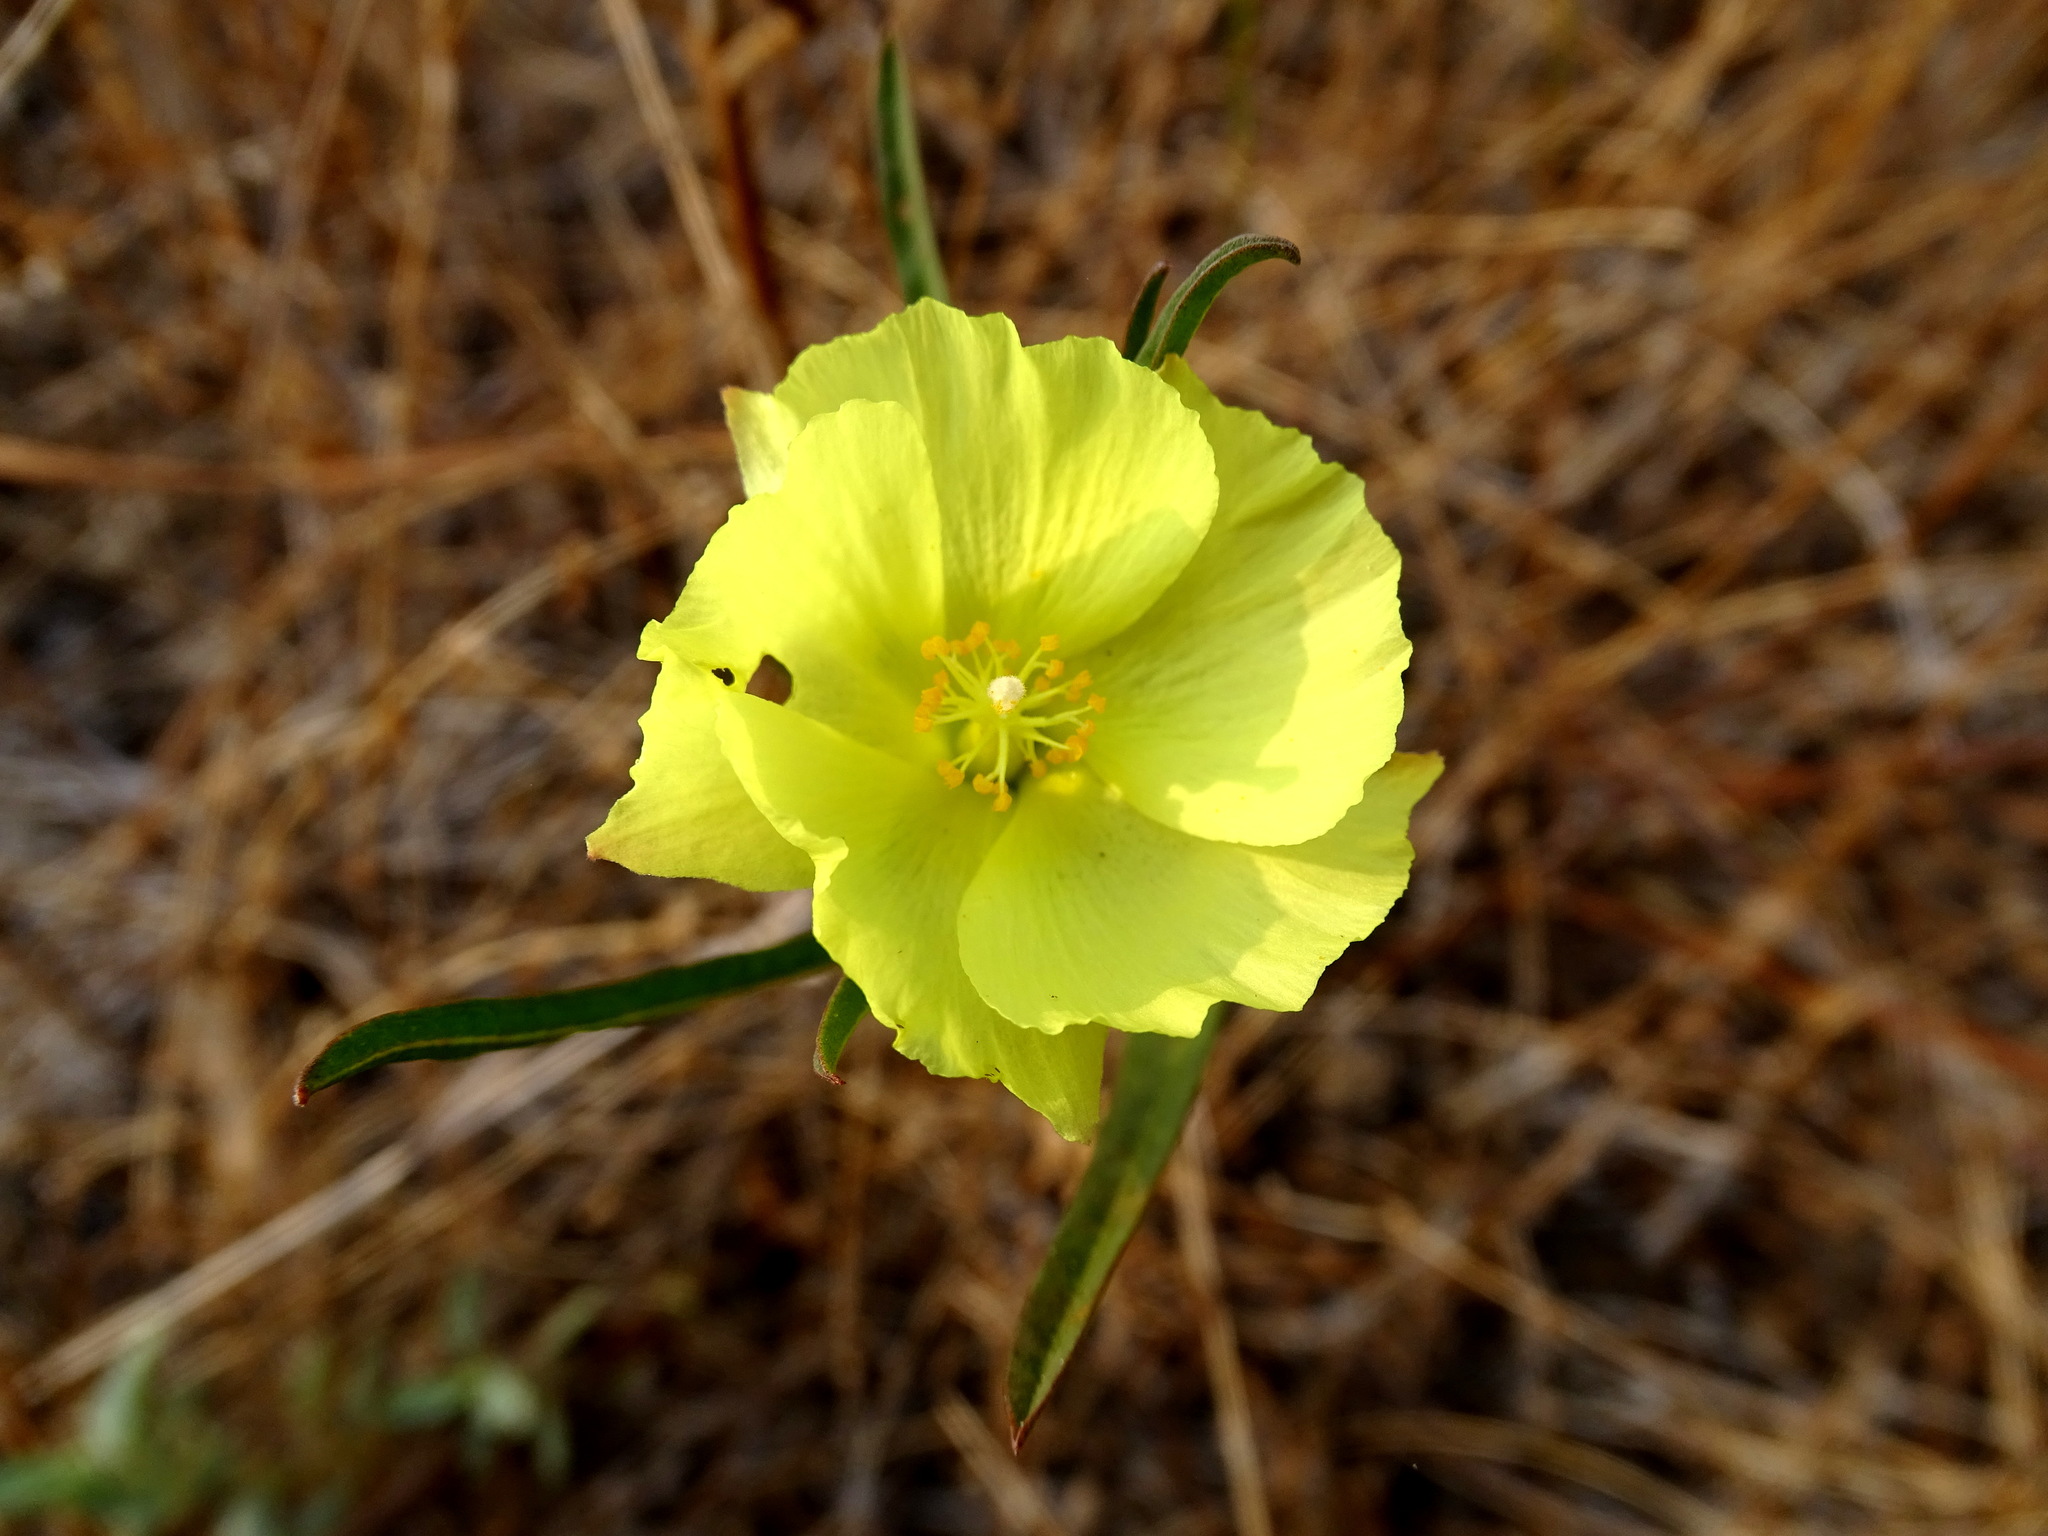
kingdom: Plantae
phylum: Tracheophyta
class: Magnoliopsida
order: Malvales
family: Malvaceae
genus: Cienfuegosia
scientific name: Cienfuegosia yucatanensis
